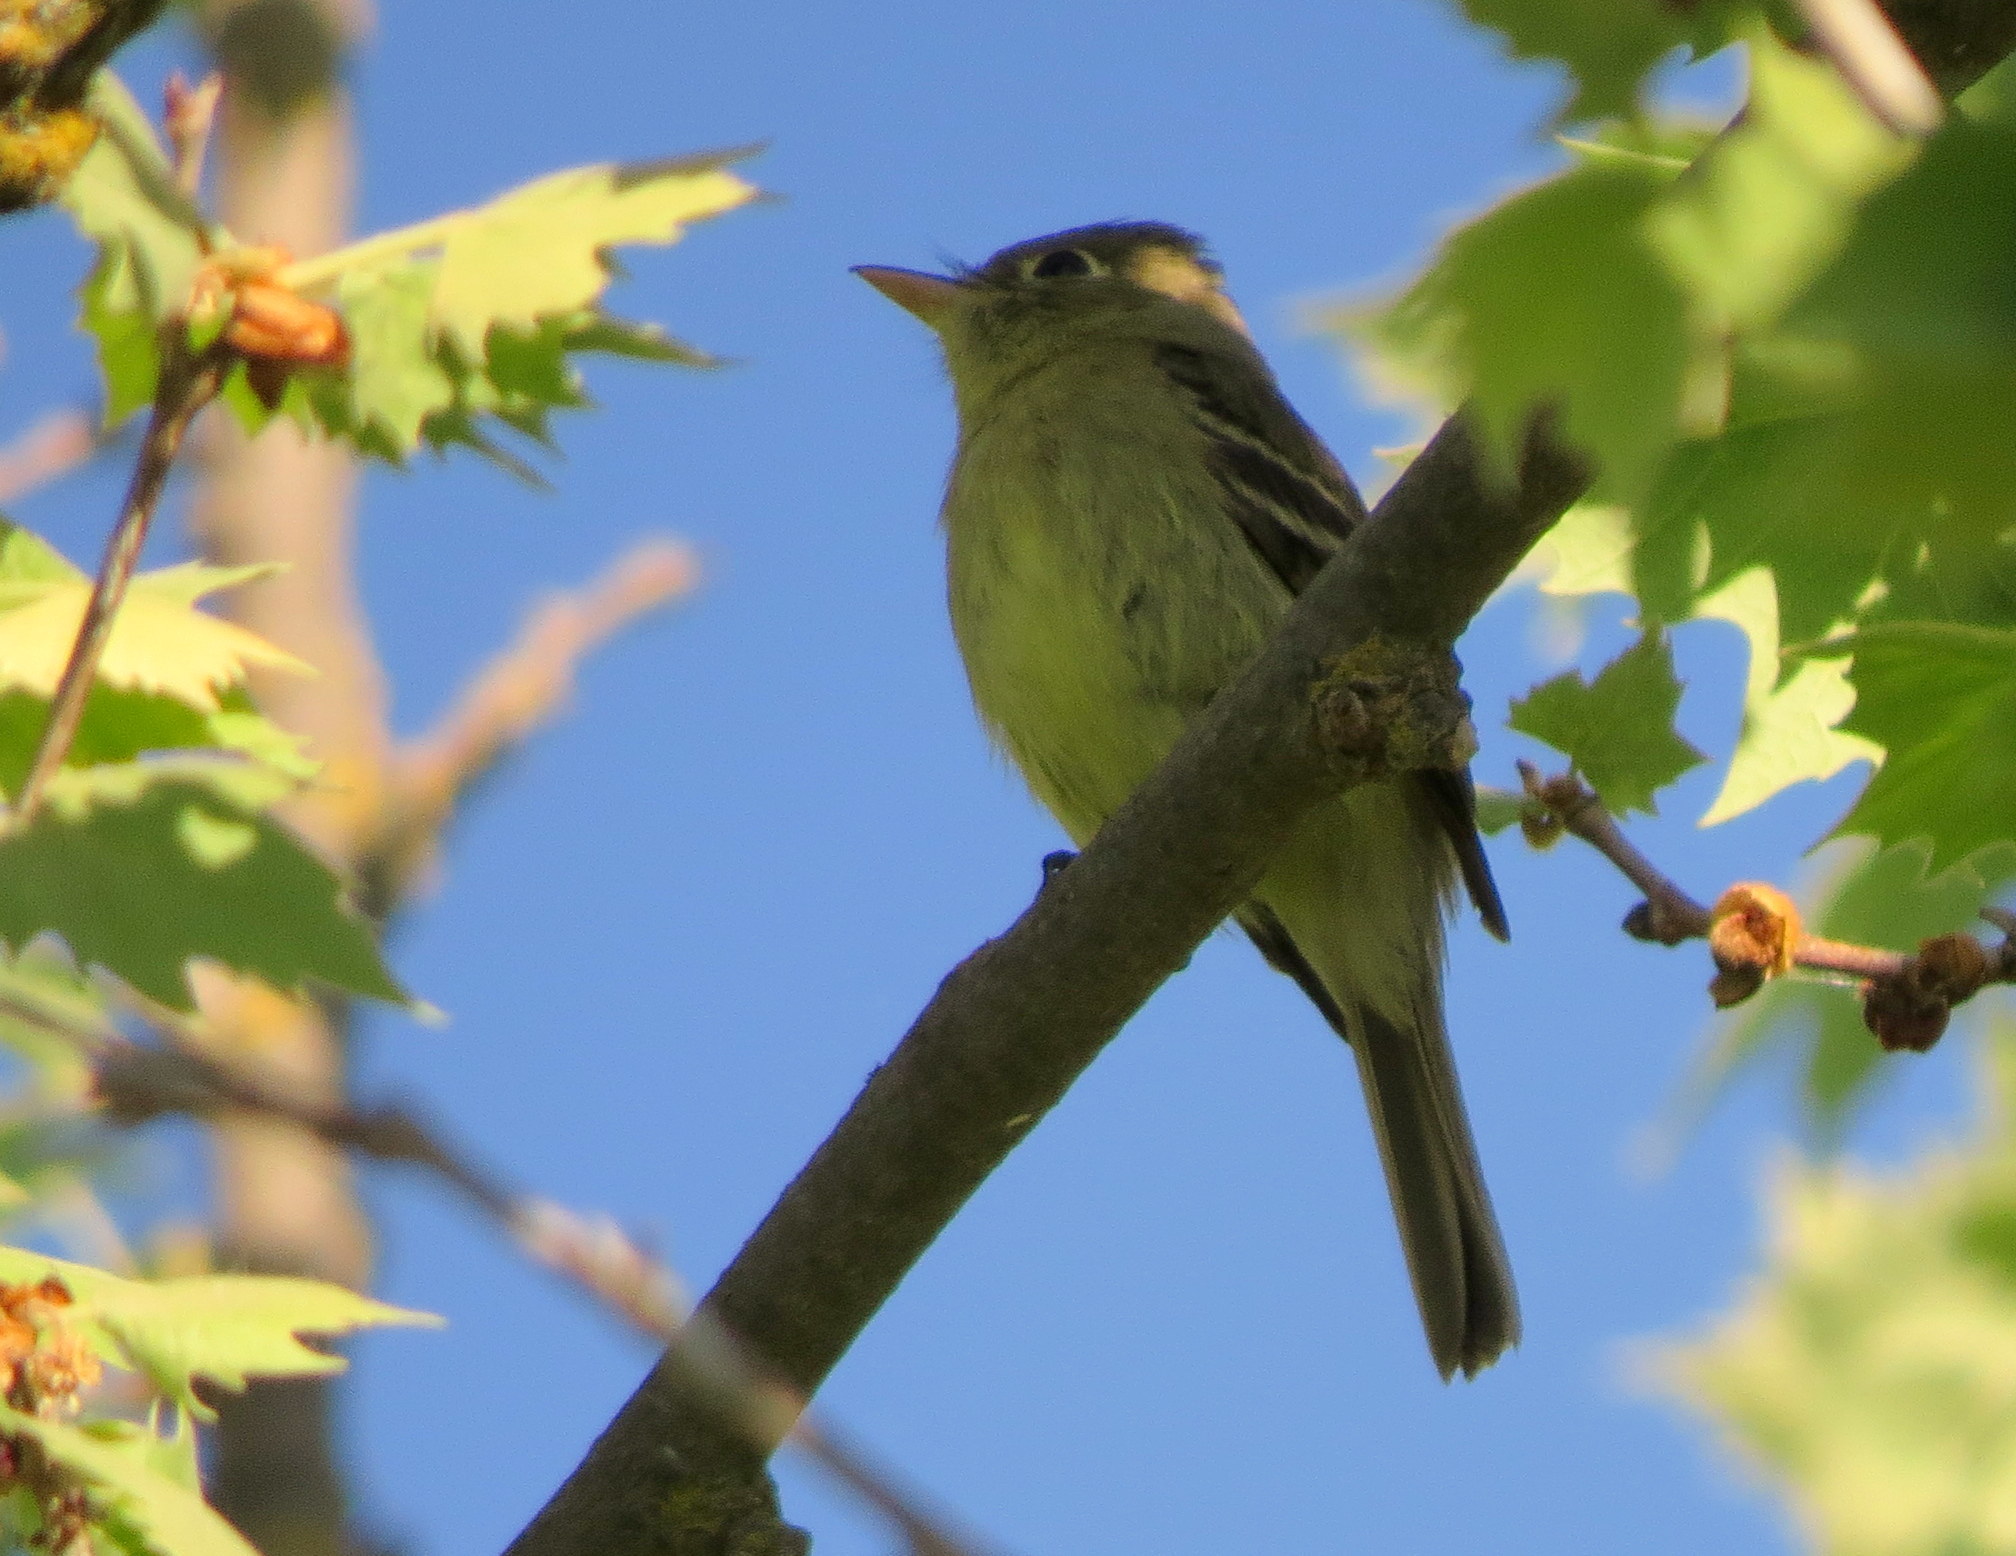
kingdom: Animalia
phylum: Chordata
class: Aves
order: Passeriformes
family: Tyrannidae
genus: Empidonax
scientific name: Empidonax difficilis
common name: Pacific-slope flycatcher
